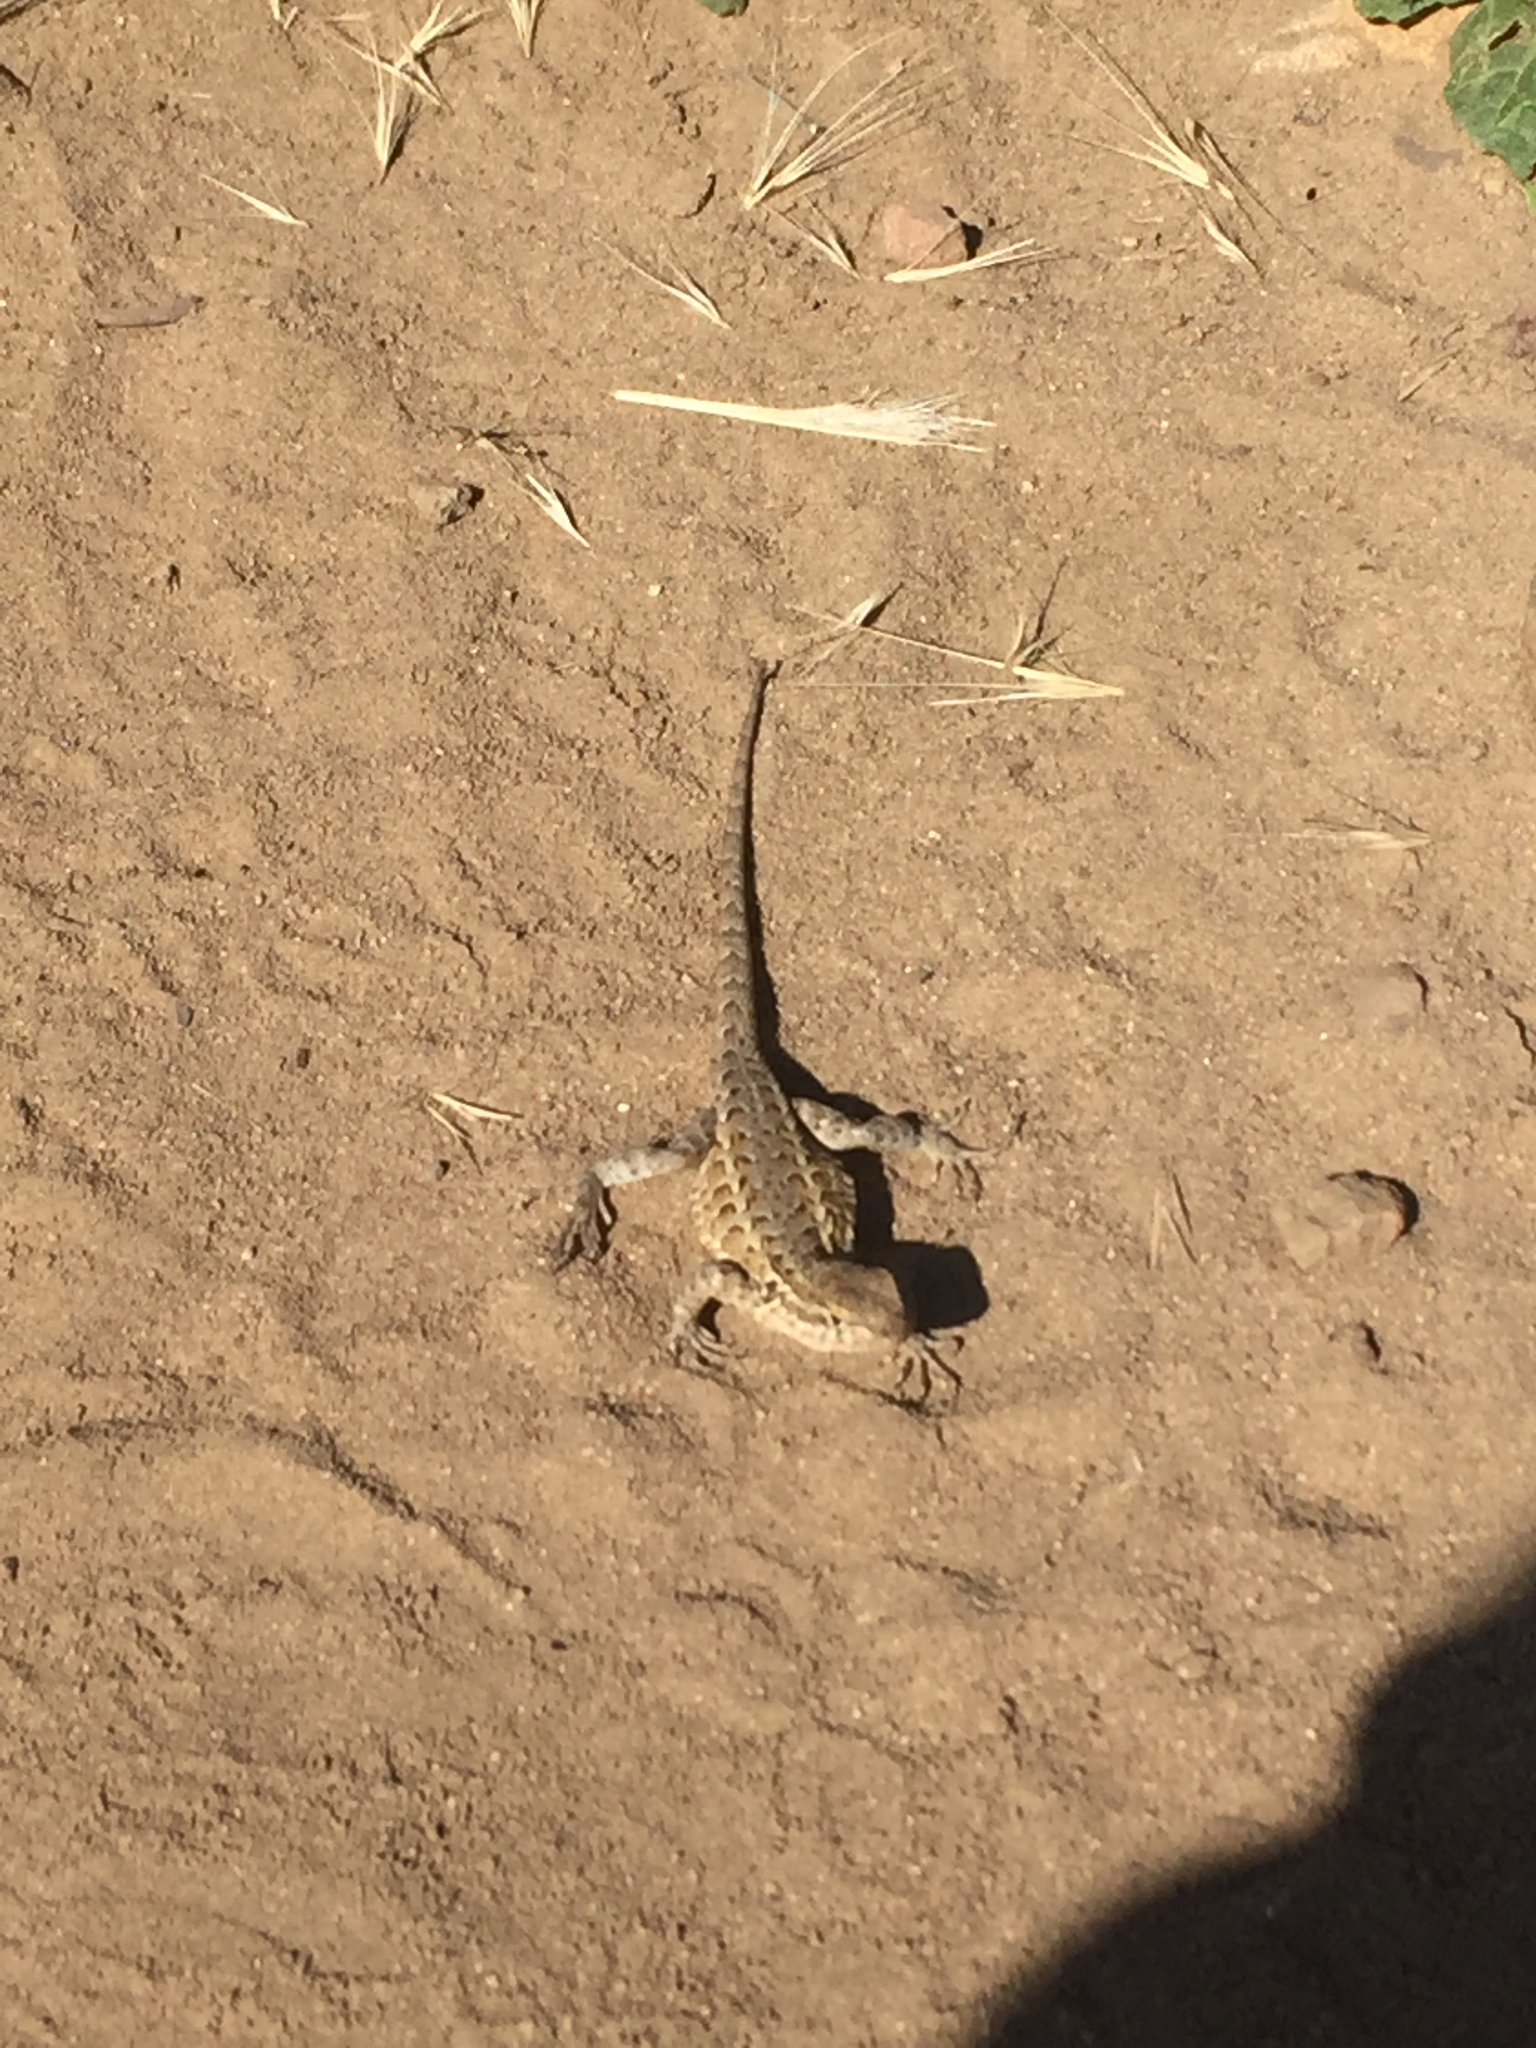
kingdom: Animalia
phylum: Chordata
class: Squamata
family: Phrynosomatidae
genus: Sceloporus
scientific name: Sceloporus occidentalis
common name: Western fence lizard
